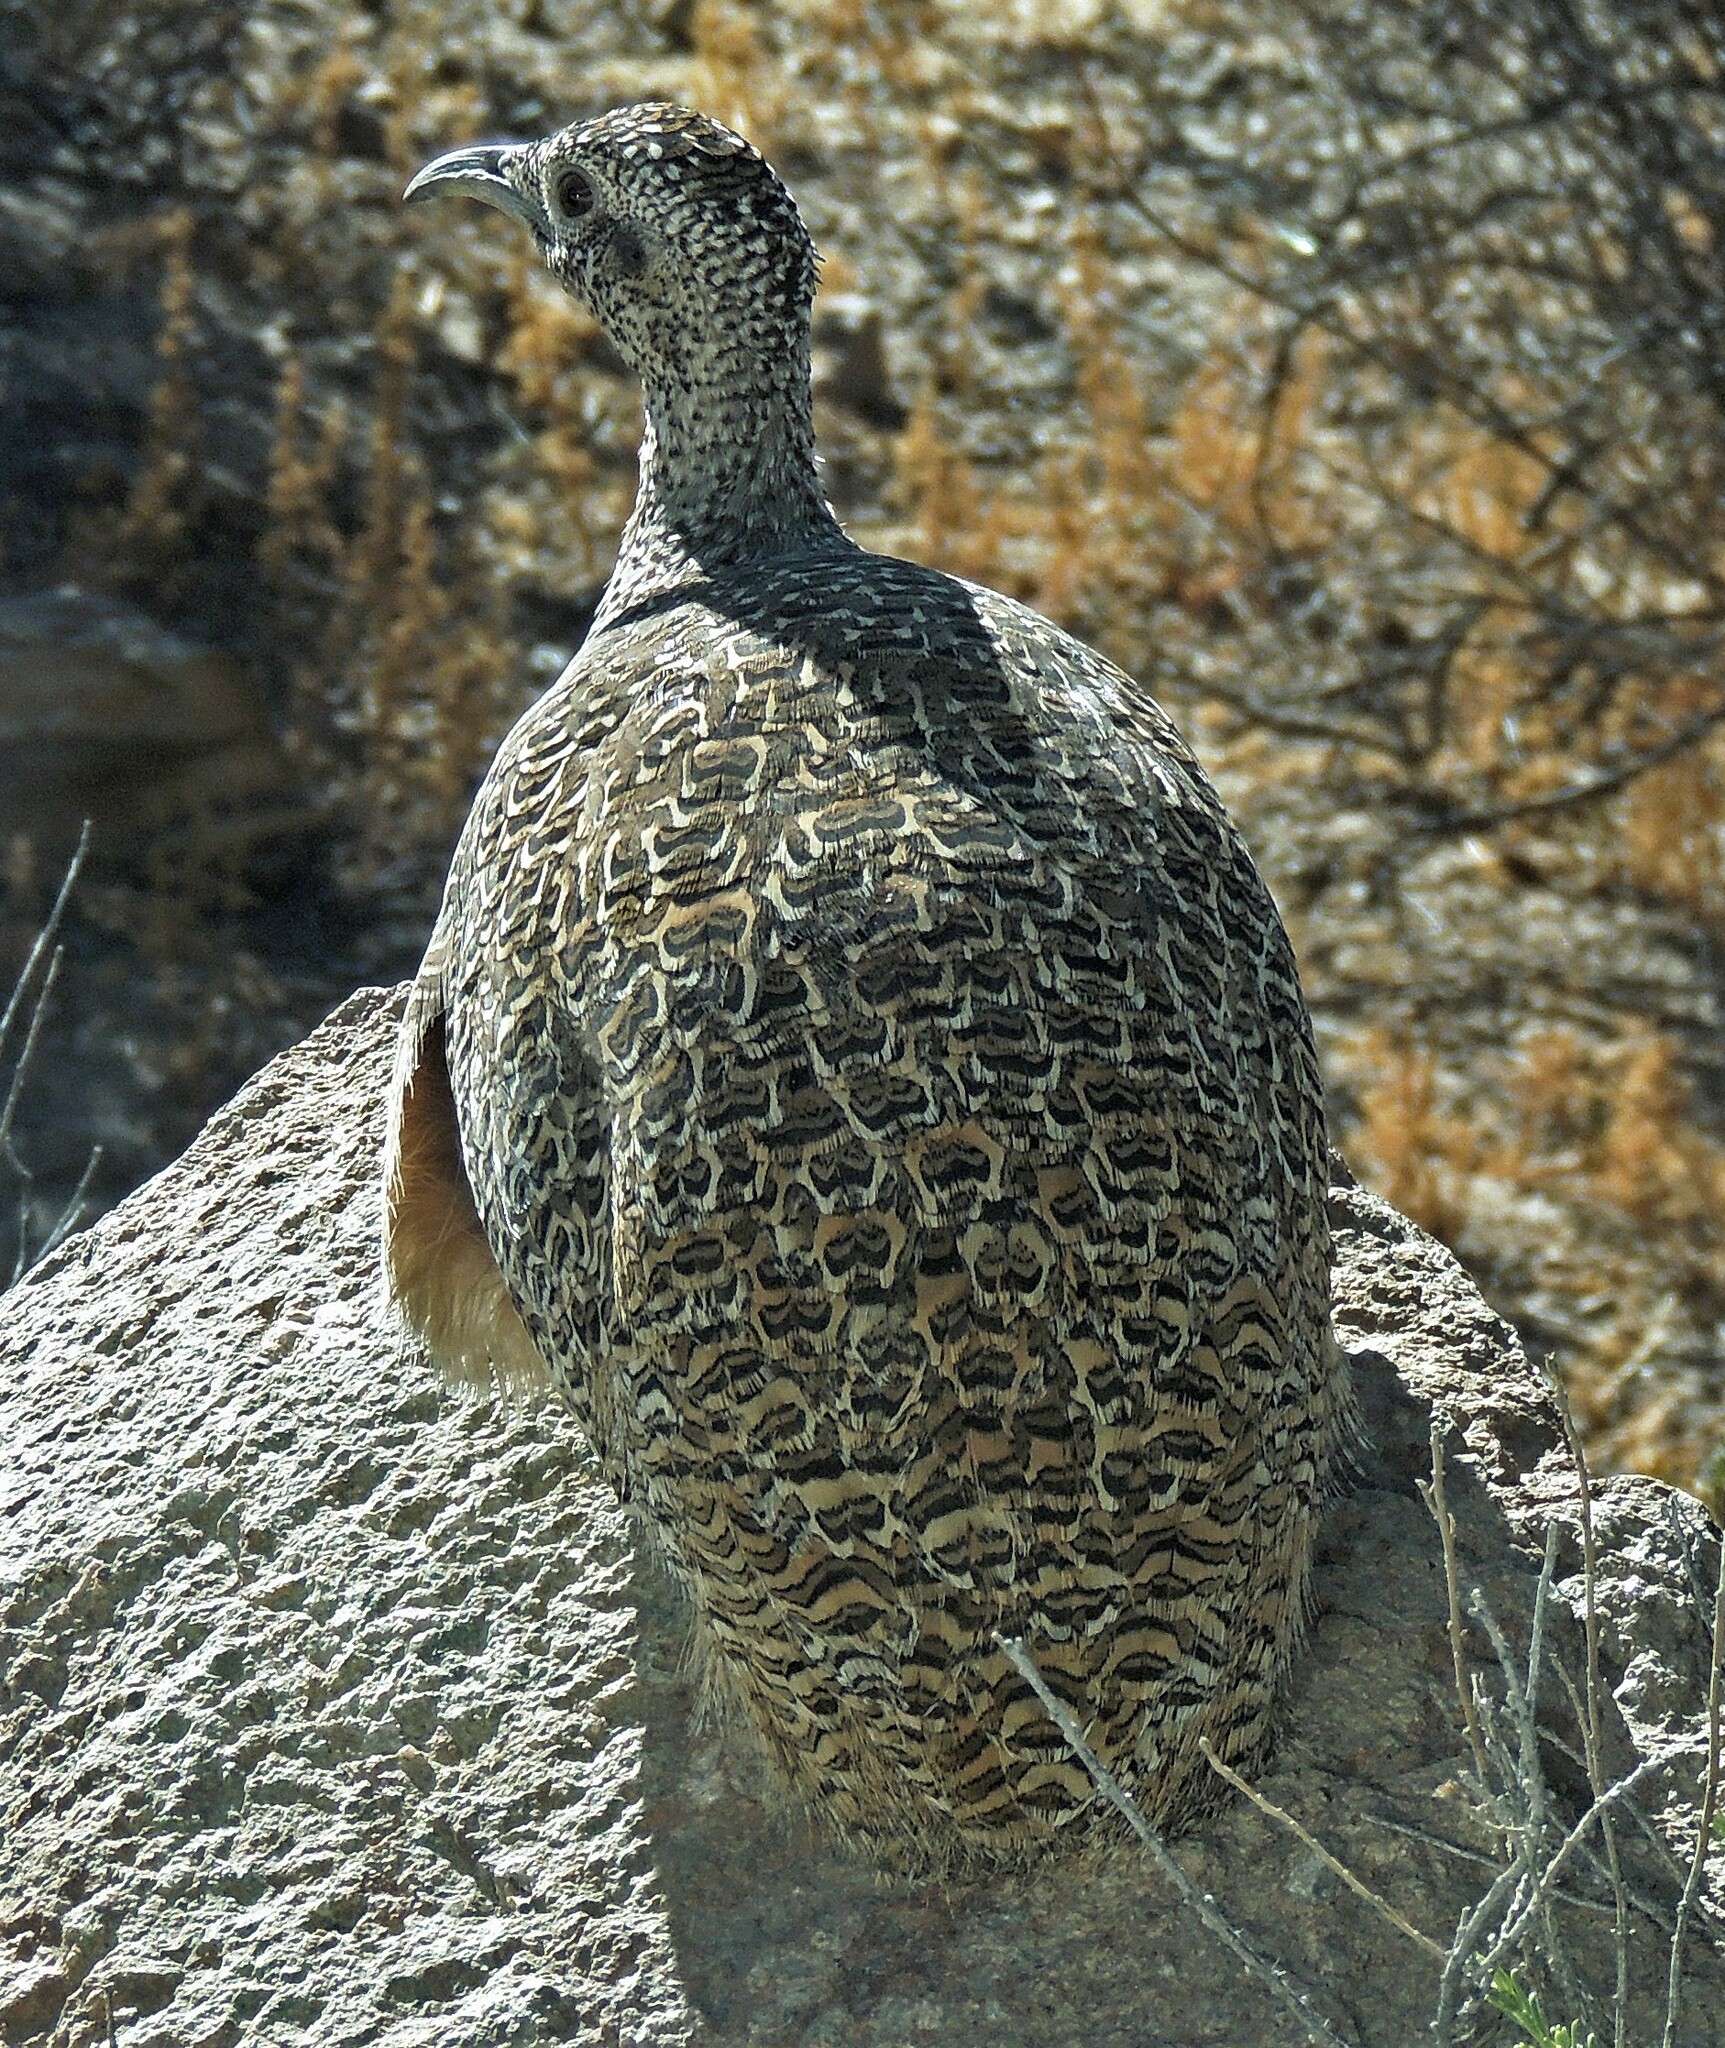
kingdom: Animalia
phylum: Chordata
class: Aves
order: Tinamiformes
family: Tinamidae
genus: Nothoprocta
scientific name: Nothoprocta ornata
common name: Ornate tinamou
